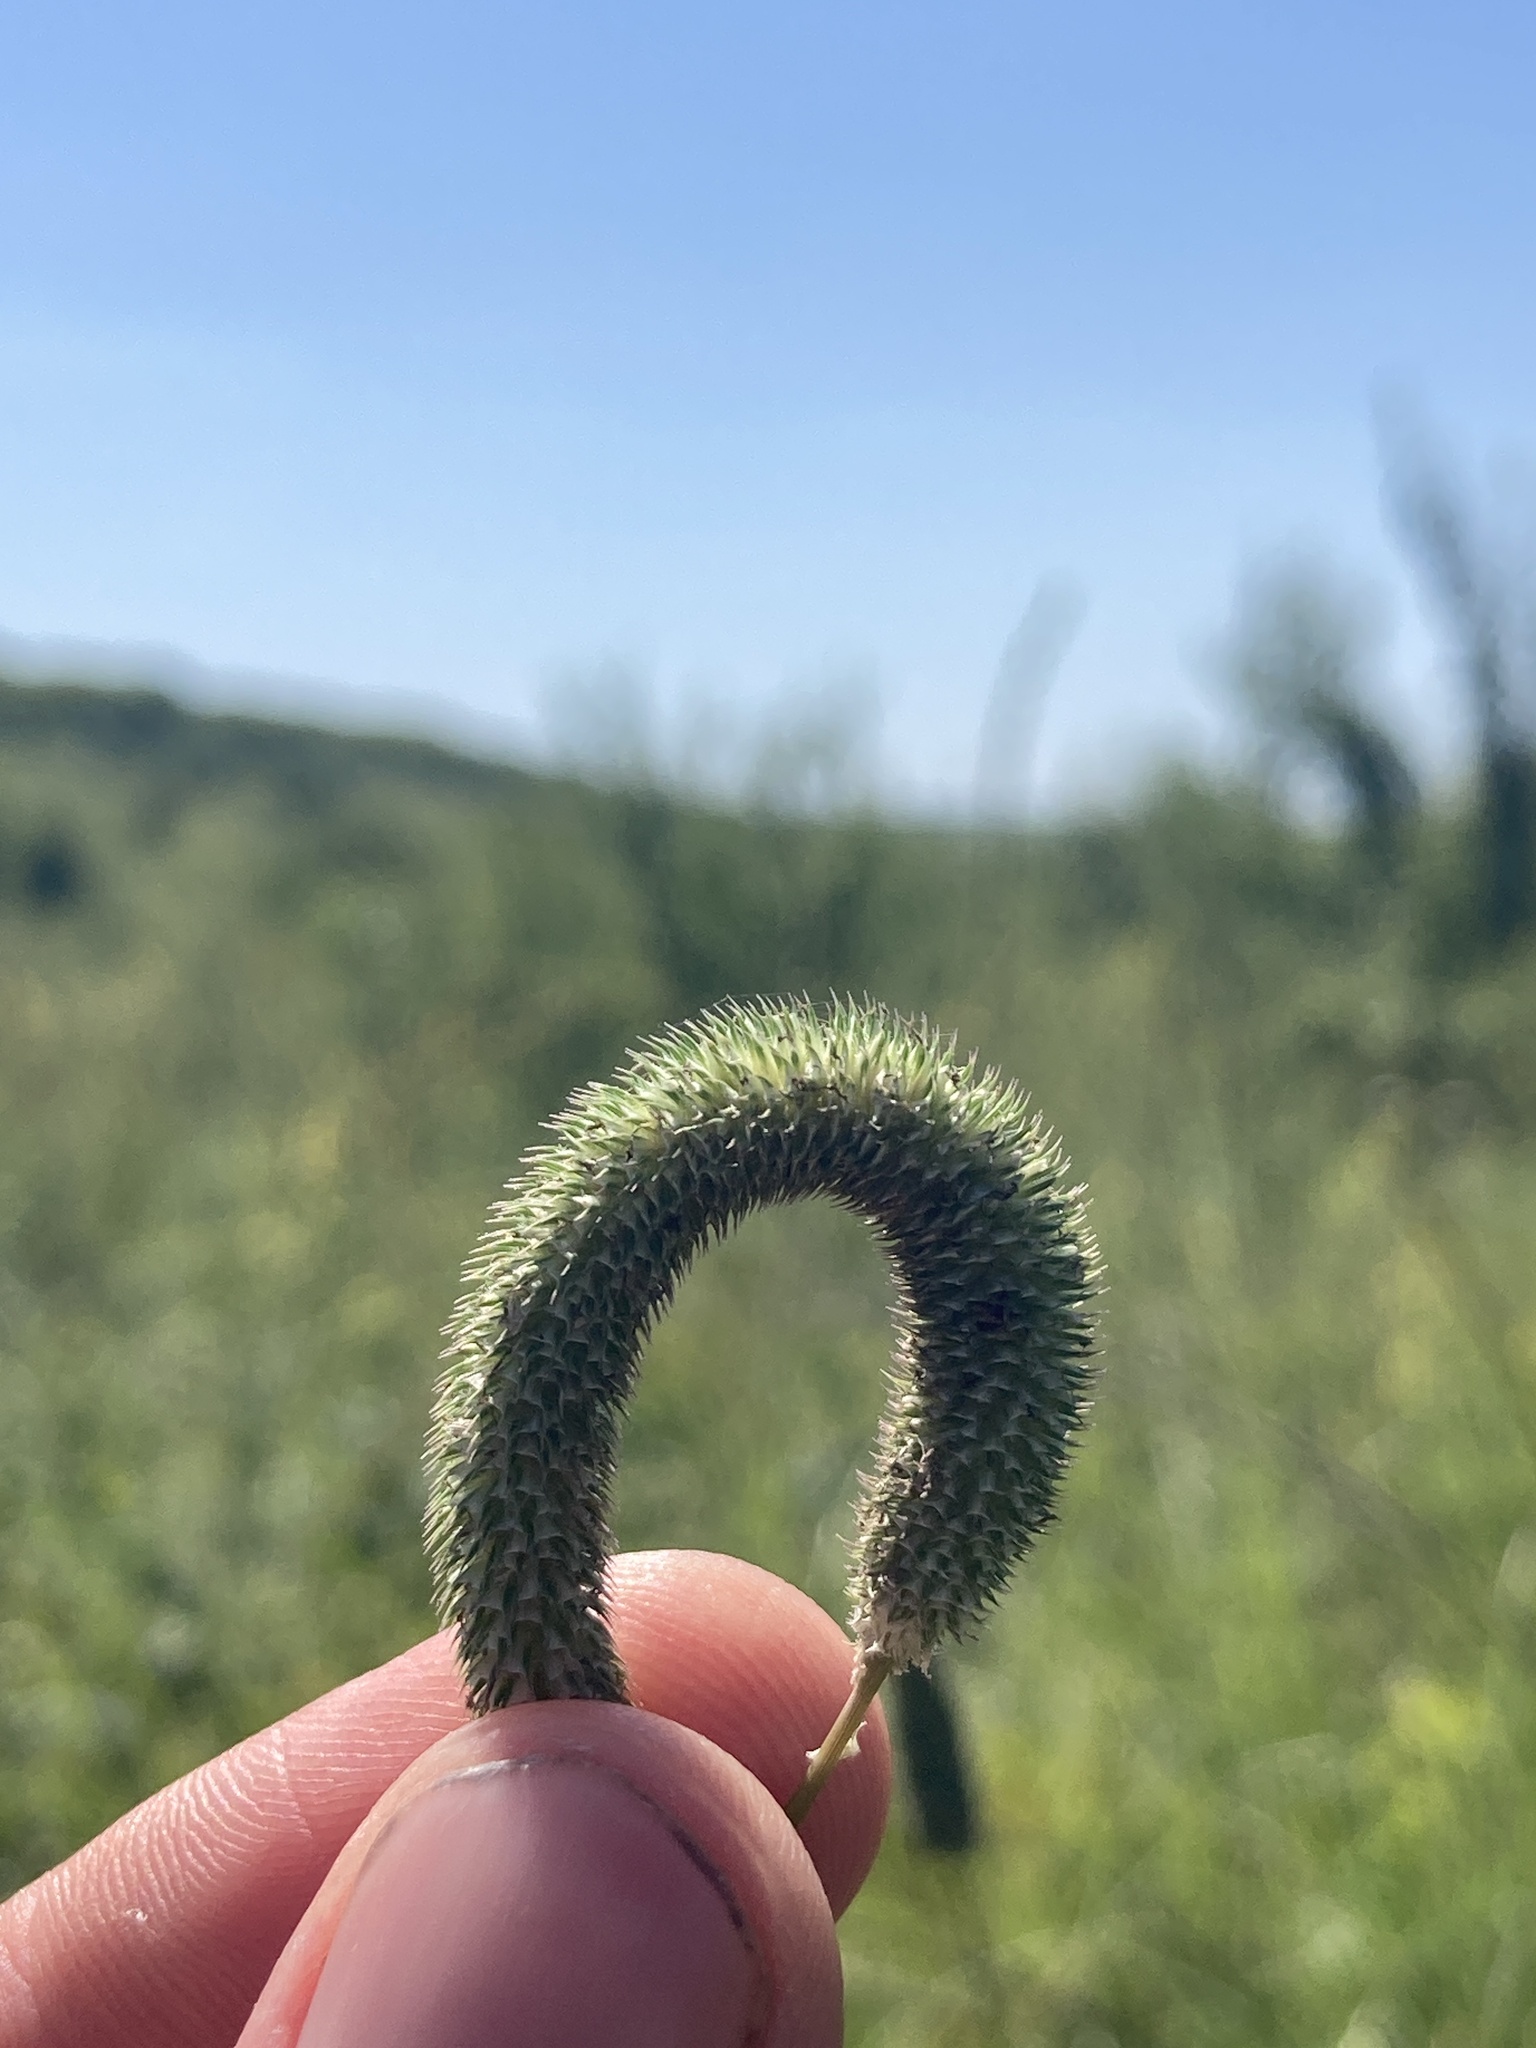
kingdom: Plantae
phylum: Tracheophyta
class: Liliopsida
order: Poales
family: Poaceae
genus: Phleum
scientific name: Phleum pratense
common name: Timothy grass
